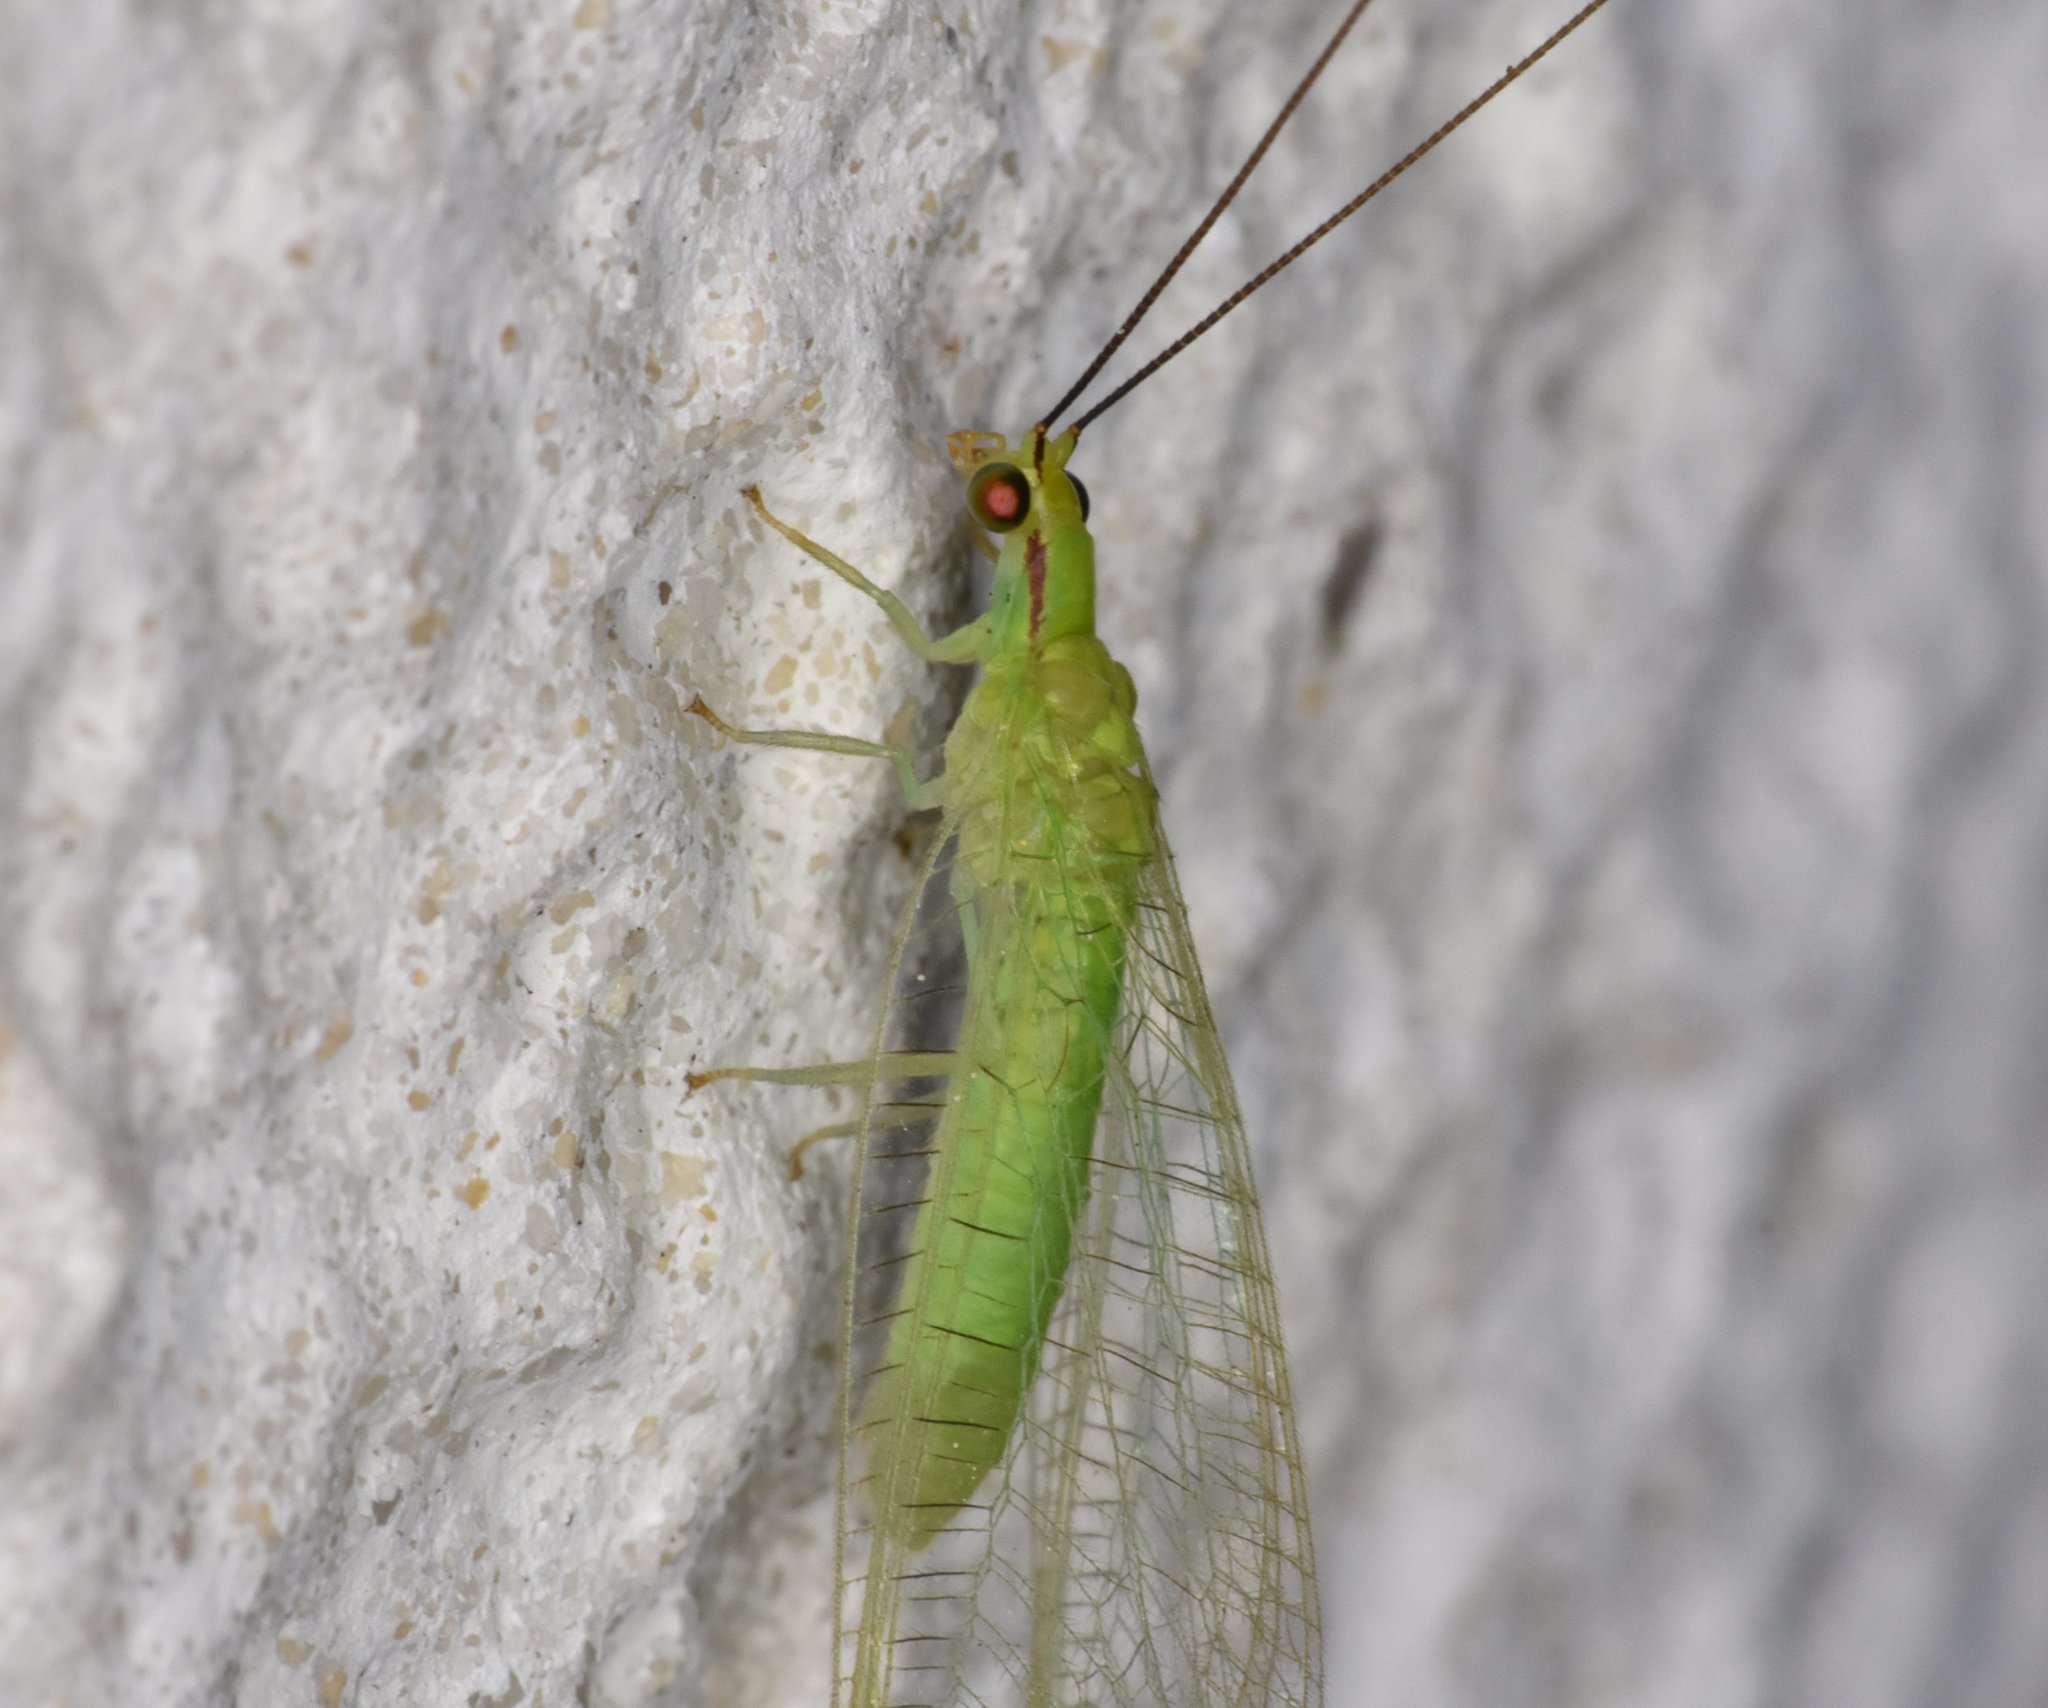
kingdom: Animalia
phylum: Arthropoda
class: Insecta
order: Neuroptera
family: Chrysopidae
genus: Ceraeochrysa
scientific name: Ceraeochrysa lineaticornis
